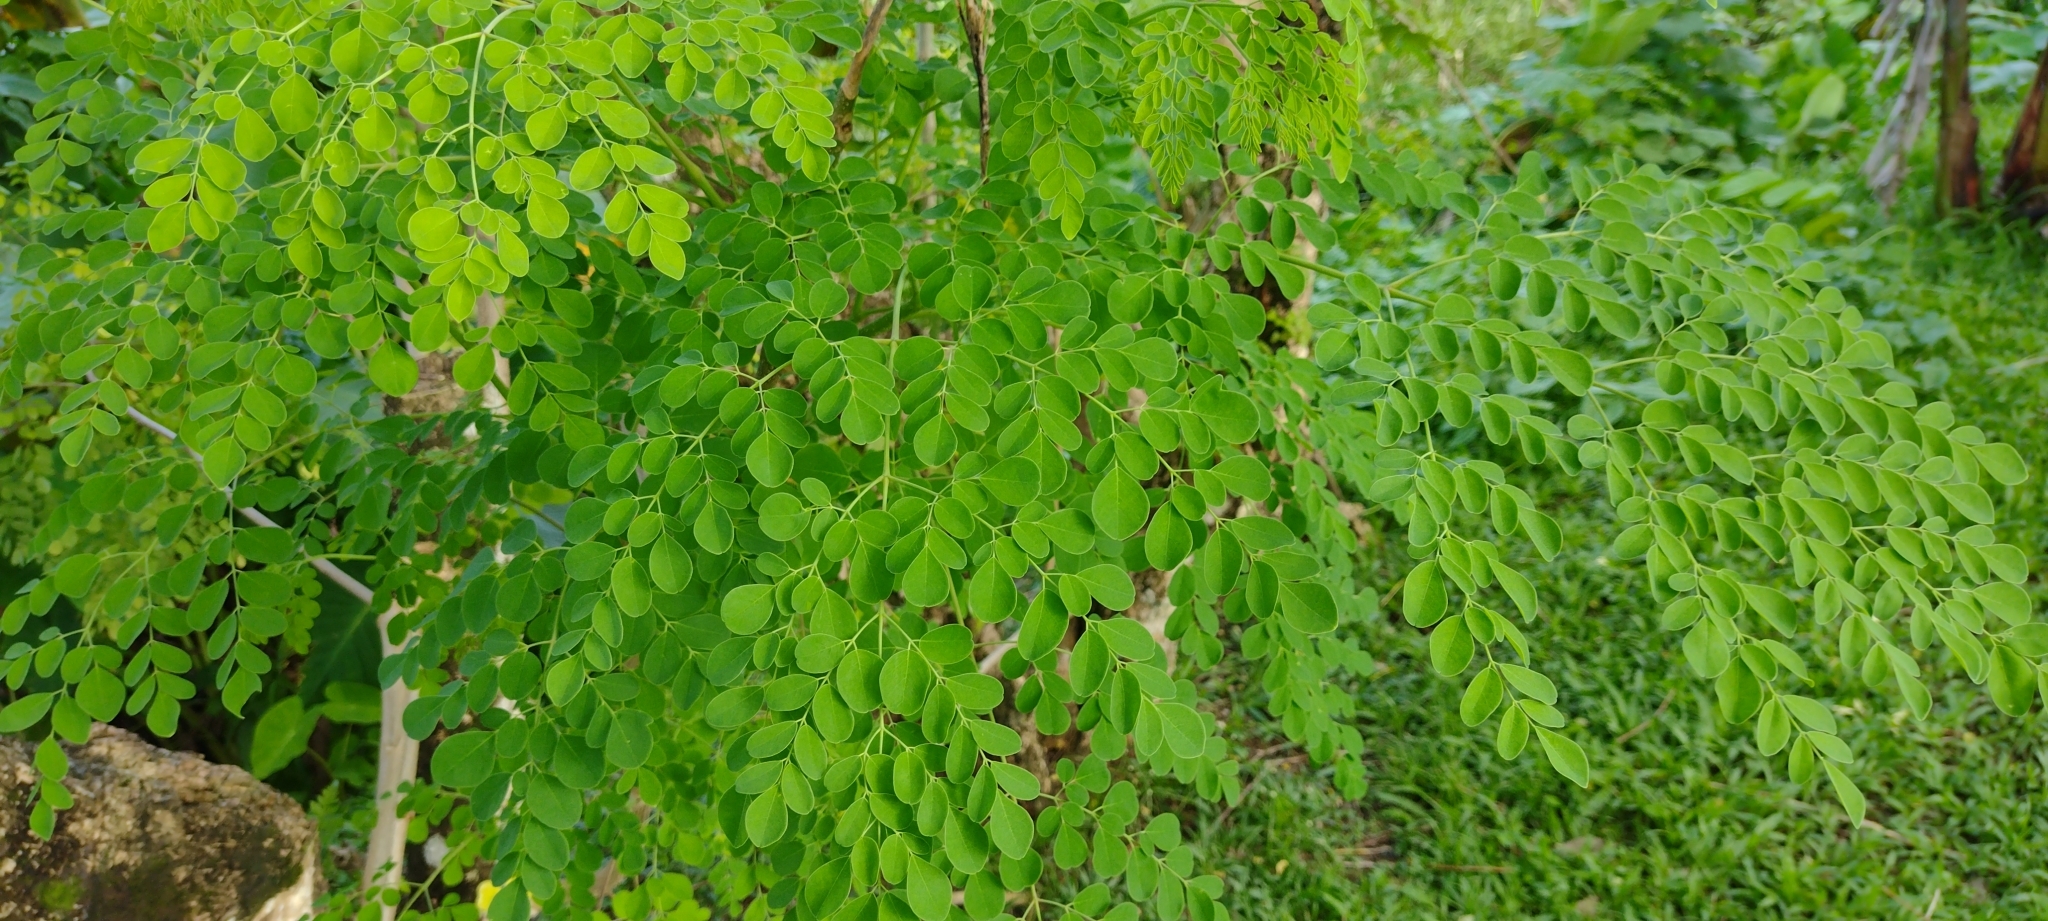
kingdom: Plantae
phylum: Tracheophyta
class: Magnoliopsida
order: Brassicales
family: Moringaceae
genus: Moringa
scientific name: Moringa oleifera
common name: Horseradish-tree
